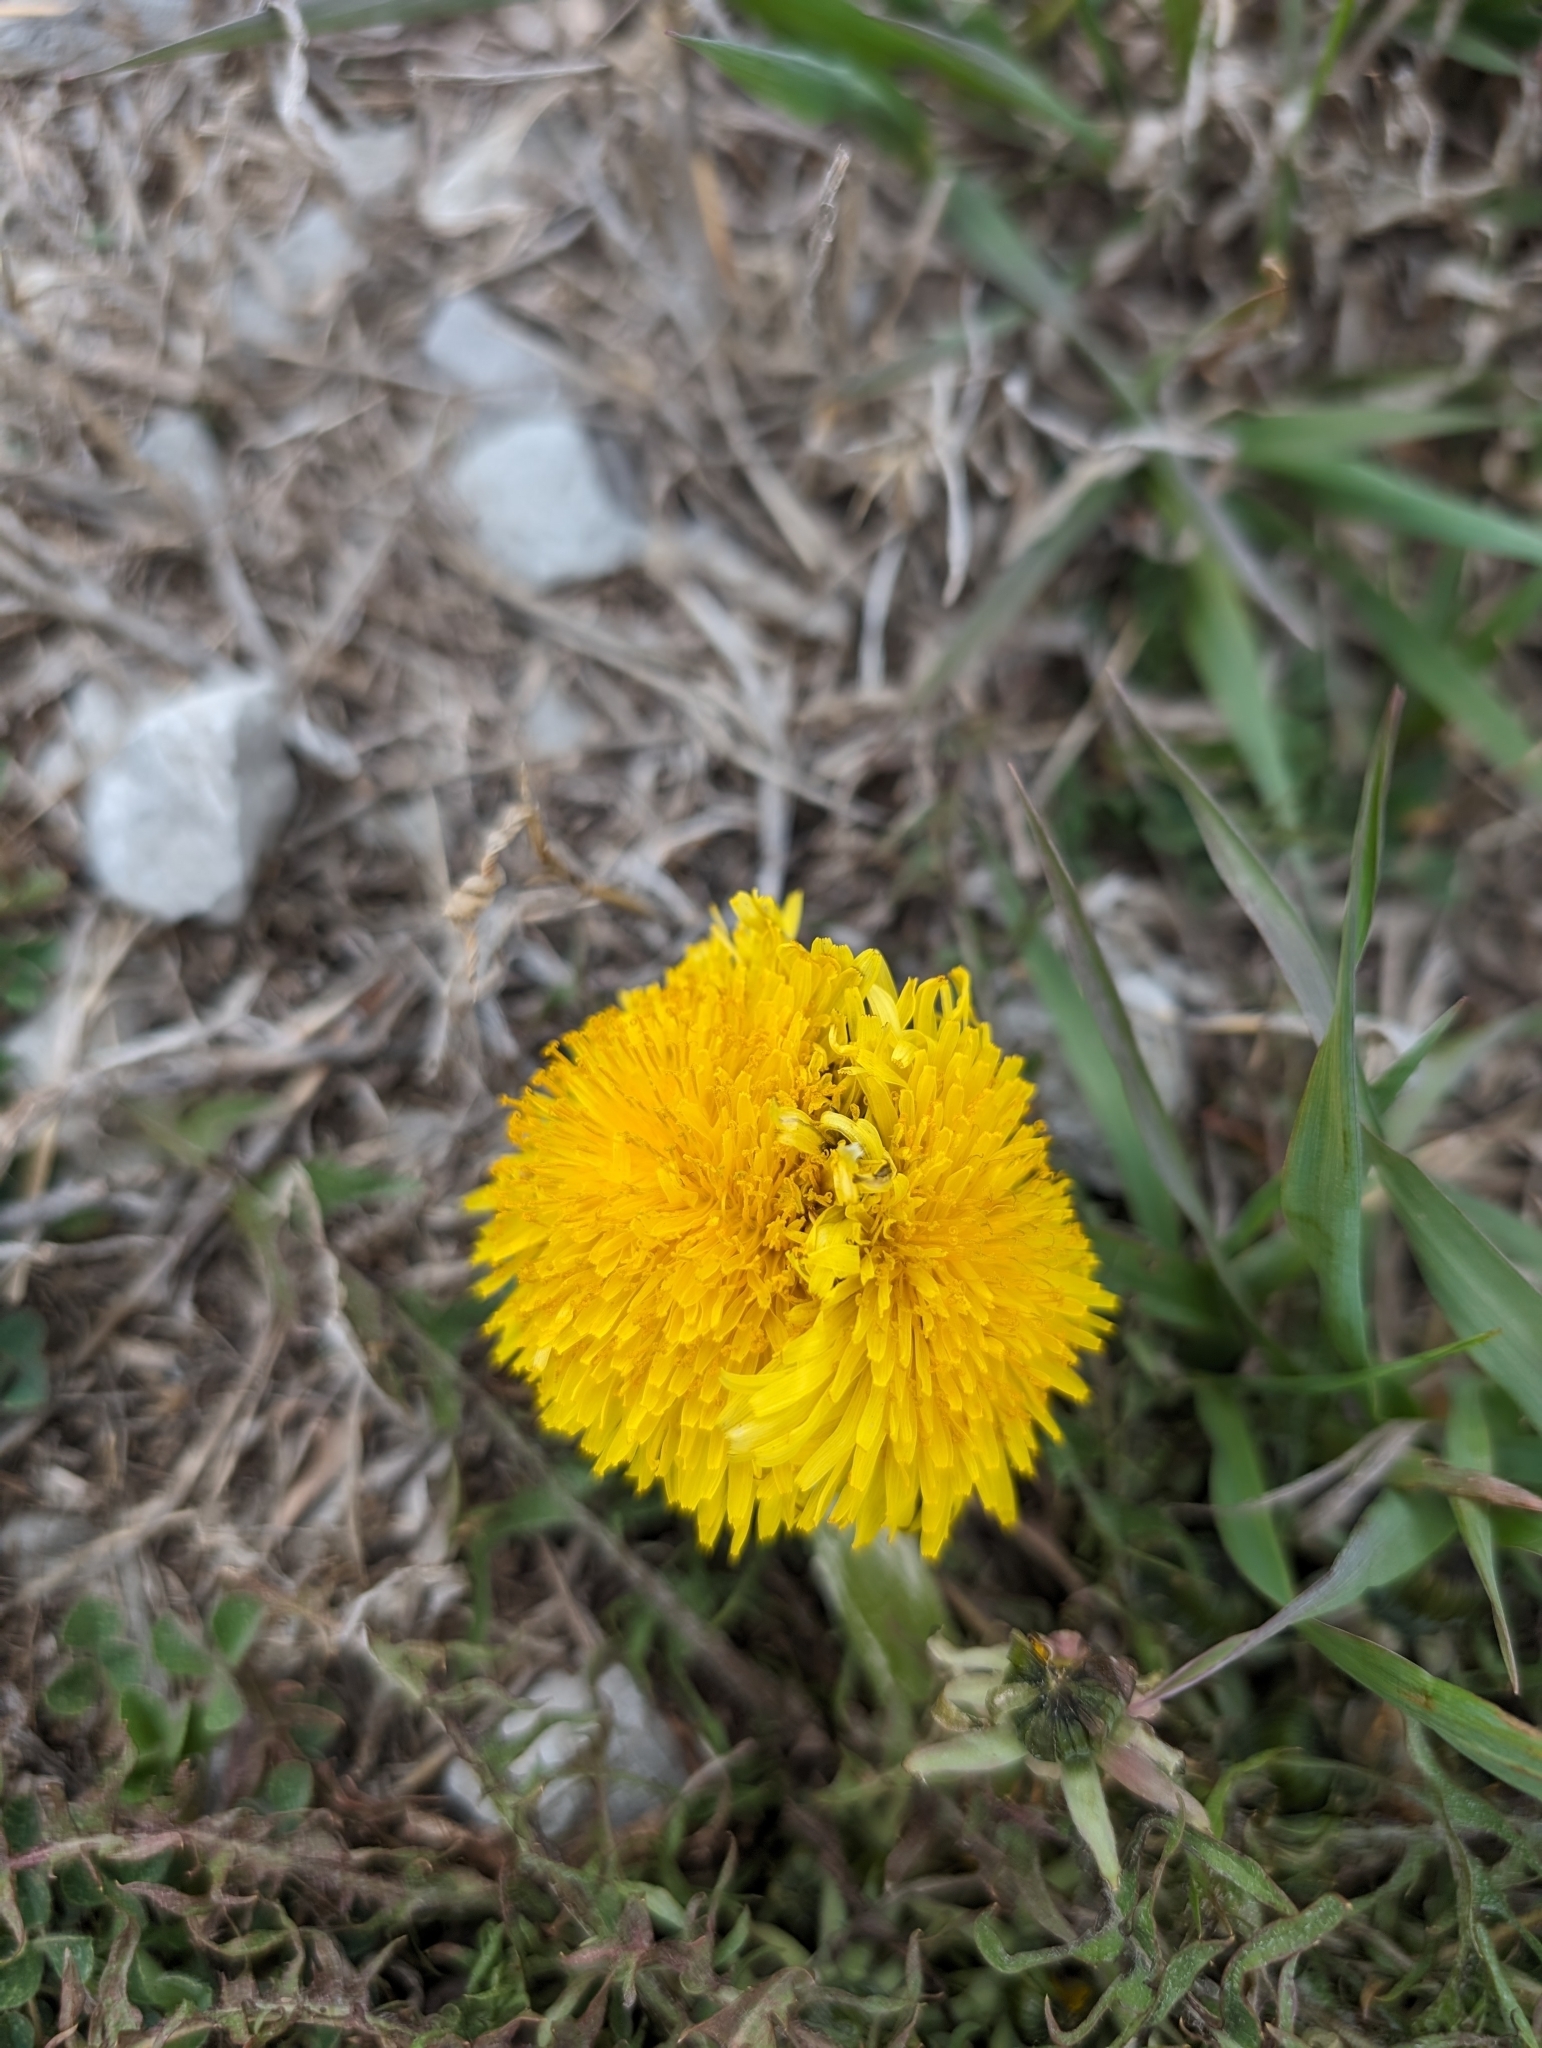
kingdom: Plantae
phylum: Tracheophyta
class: Magnoliopsida
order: Asterales
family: Asteraceae
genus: Taraxacum
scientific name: Taraxacum
